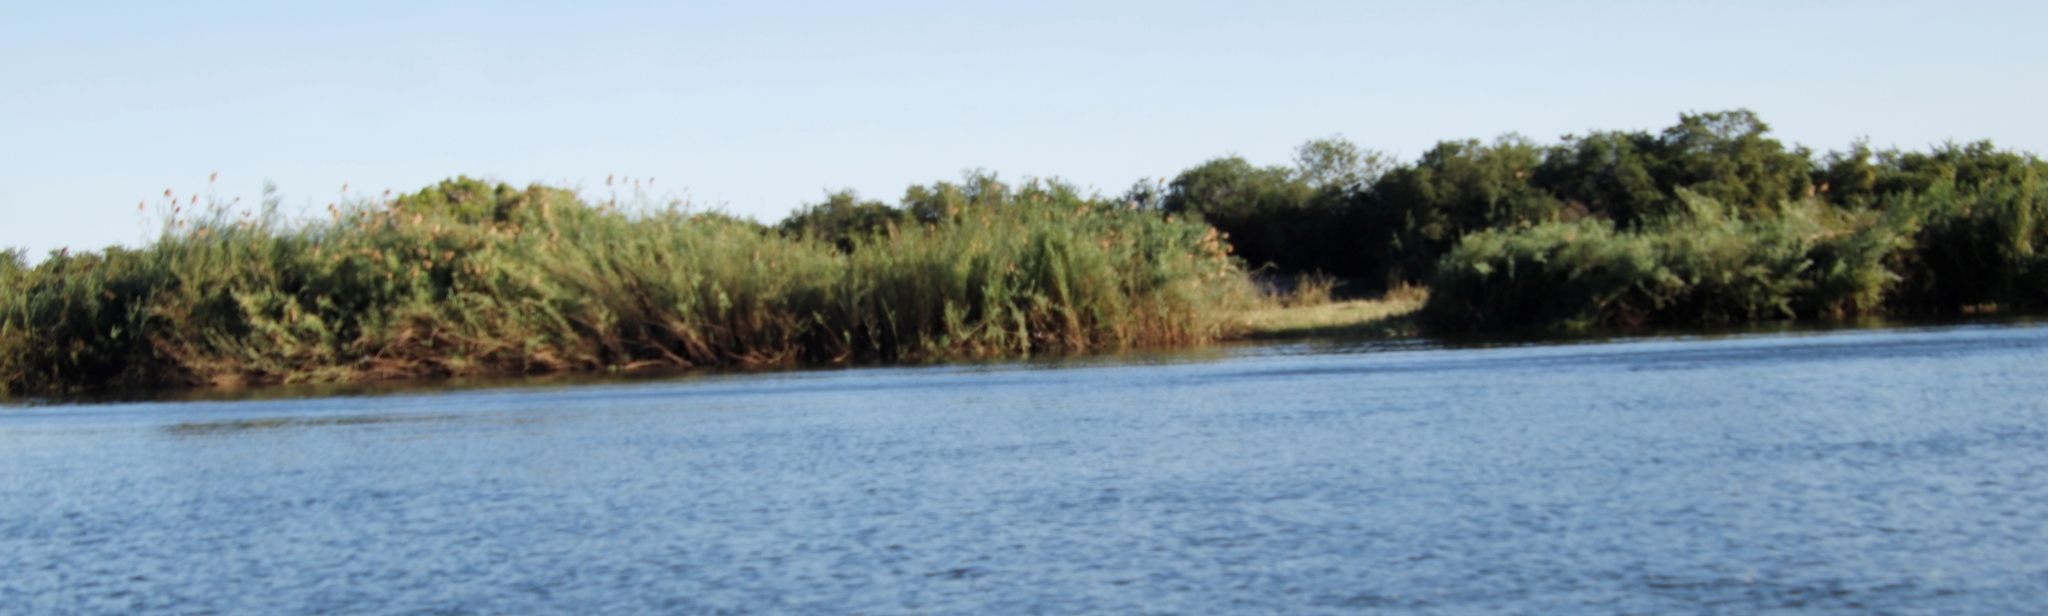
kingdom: Plantae
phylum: Tracheophyta
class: Liliopsida
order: Poales
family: Poaceae
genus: Phragmites
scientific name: Phragmites australis
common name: Common reed
